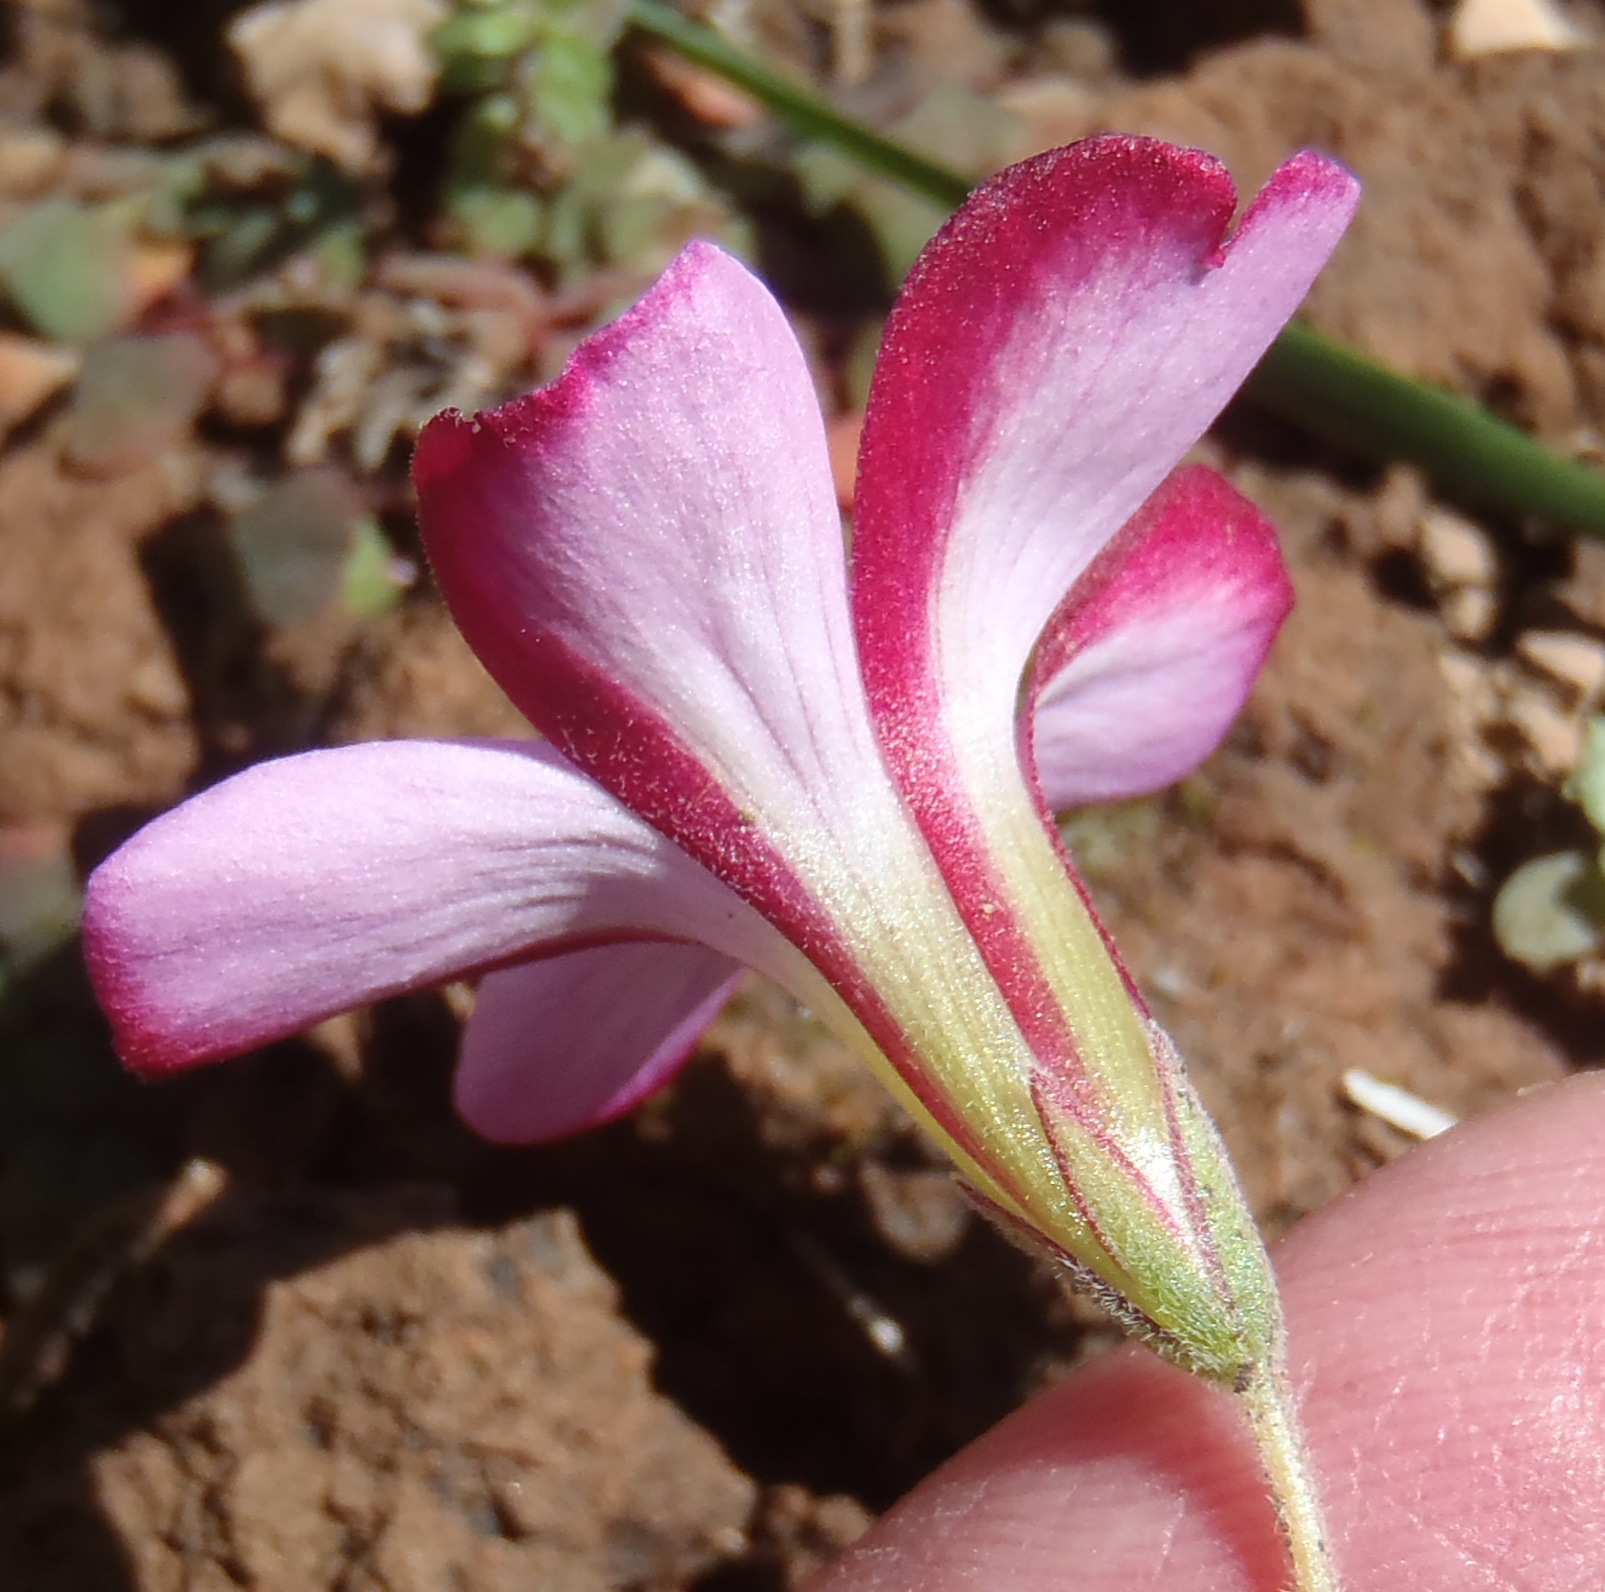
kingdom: Plantae
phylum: Tracheophyta
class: Magnoliopsida
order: Oxalidales
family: Oxalidaceae
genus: Oxalis
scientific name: Oxalis heterophylla
